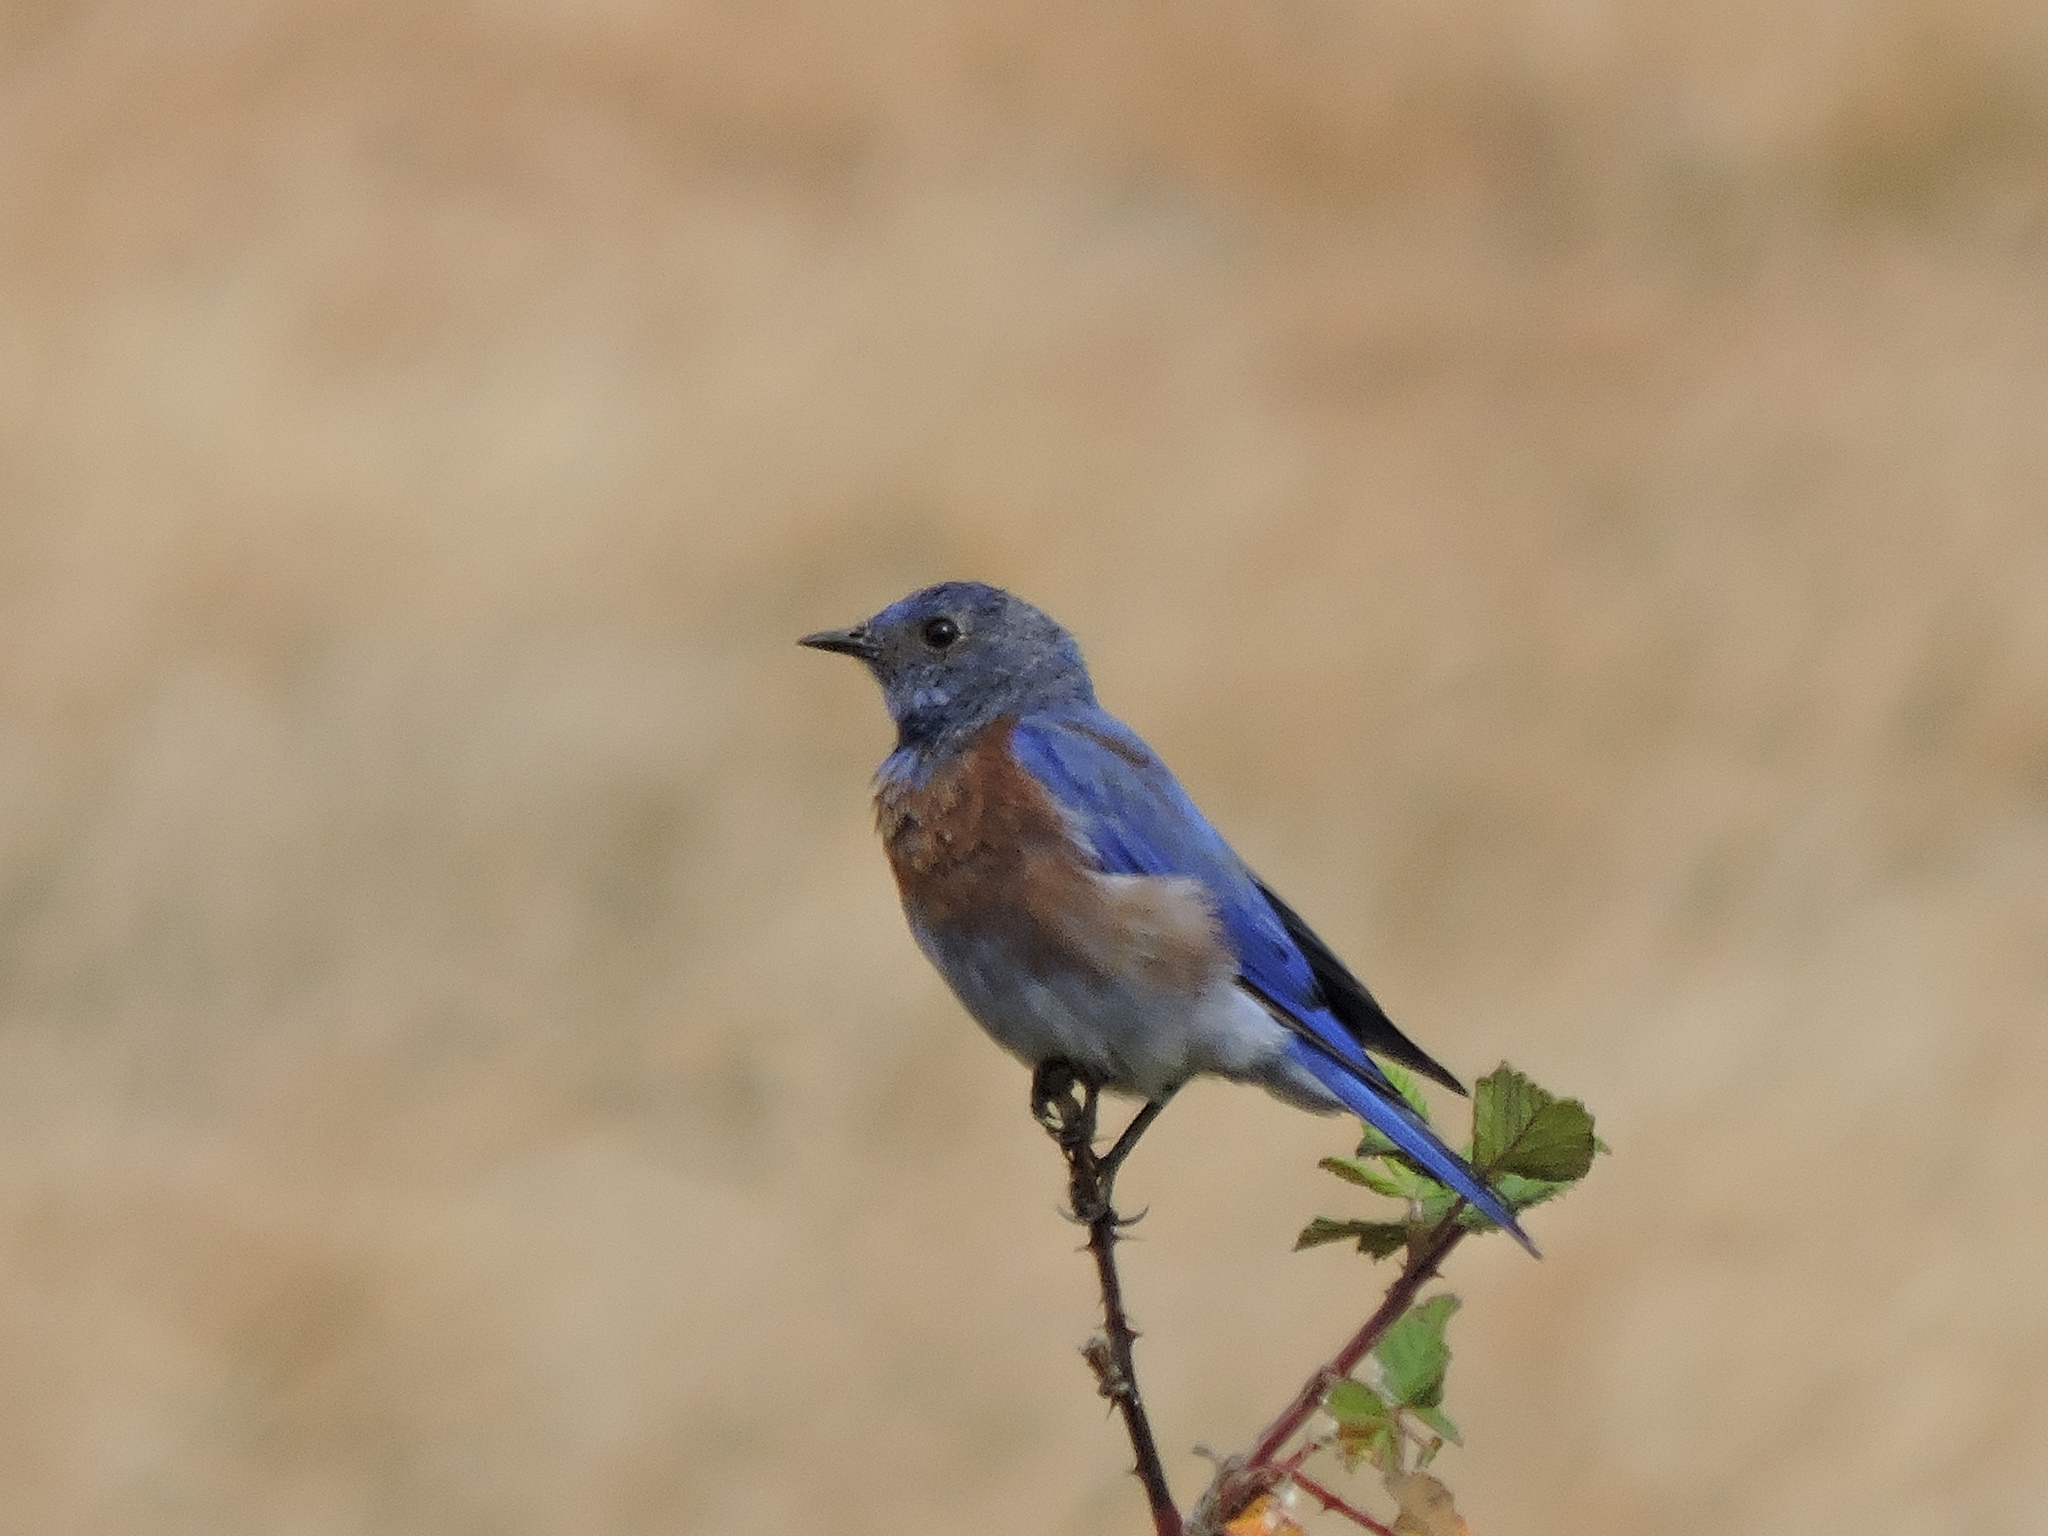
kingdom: Animalia
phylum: Chordata
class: Aves
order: Passeriformes
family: Turdidae
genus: Sialia
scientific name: Sialia mexicana
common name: Western bluebird
